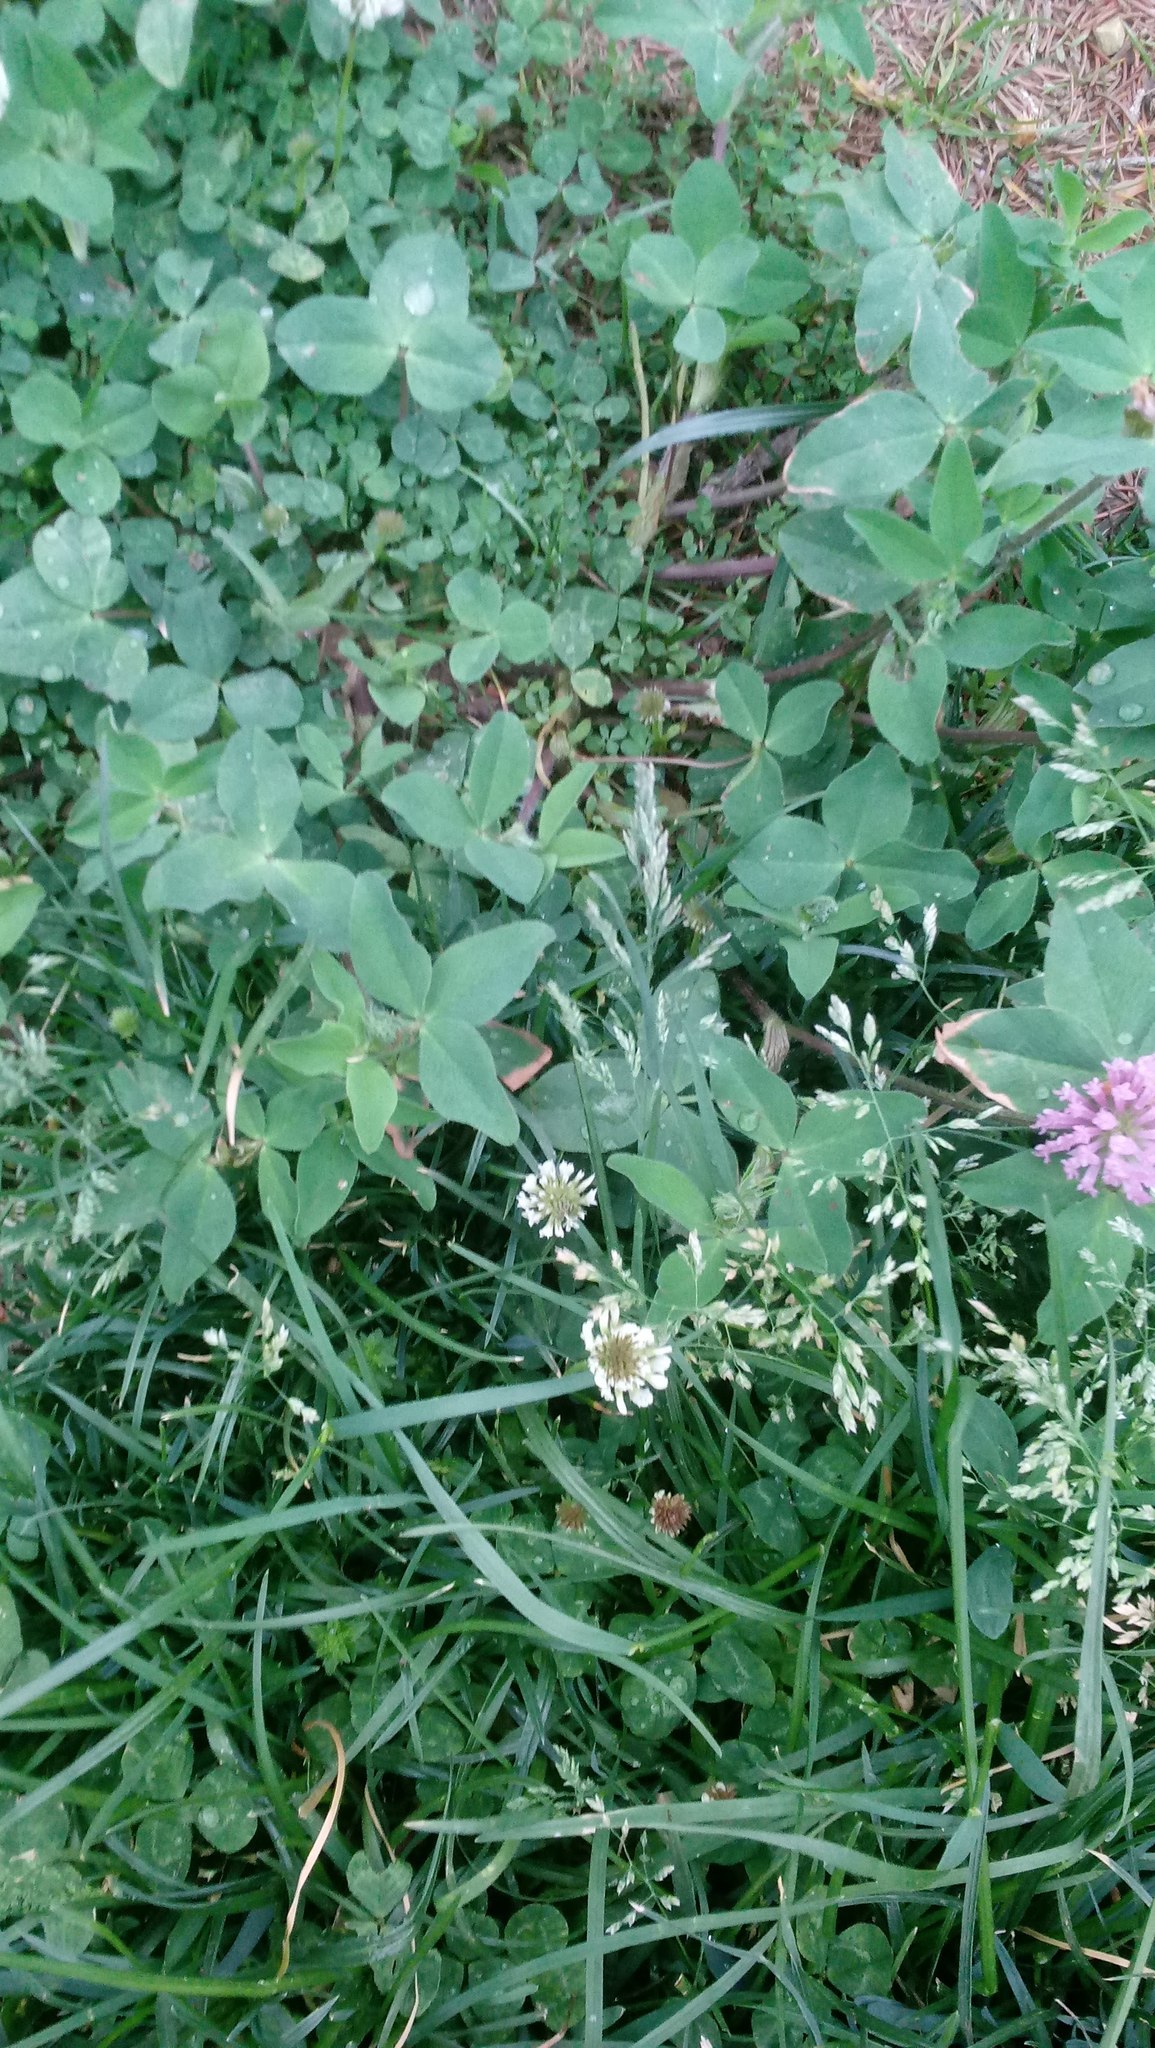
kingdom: Plantae
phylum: Tracheophyta
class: Magnoliopsida
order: Fabales
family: Fabaceae
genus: Trifolium
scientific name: Trifolium repens
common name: White clover
